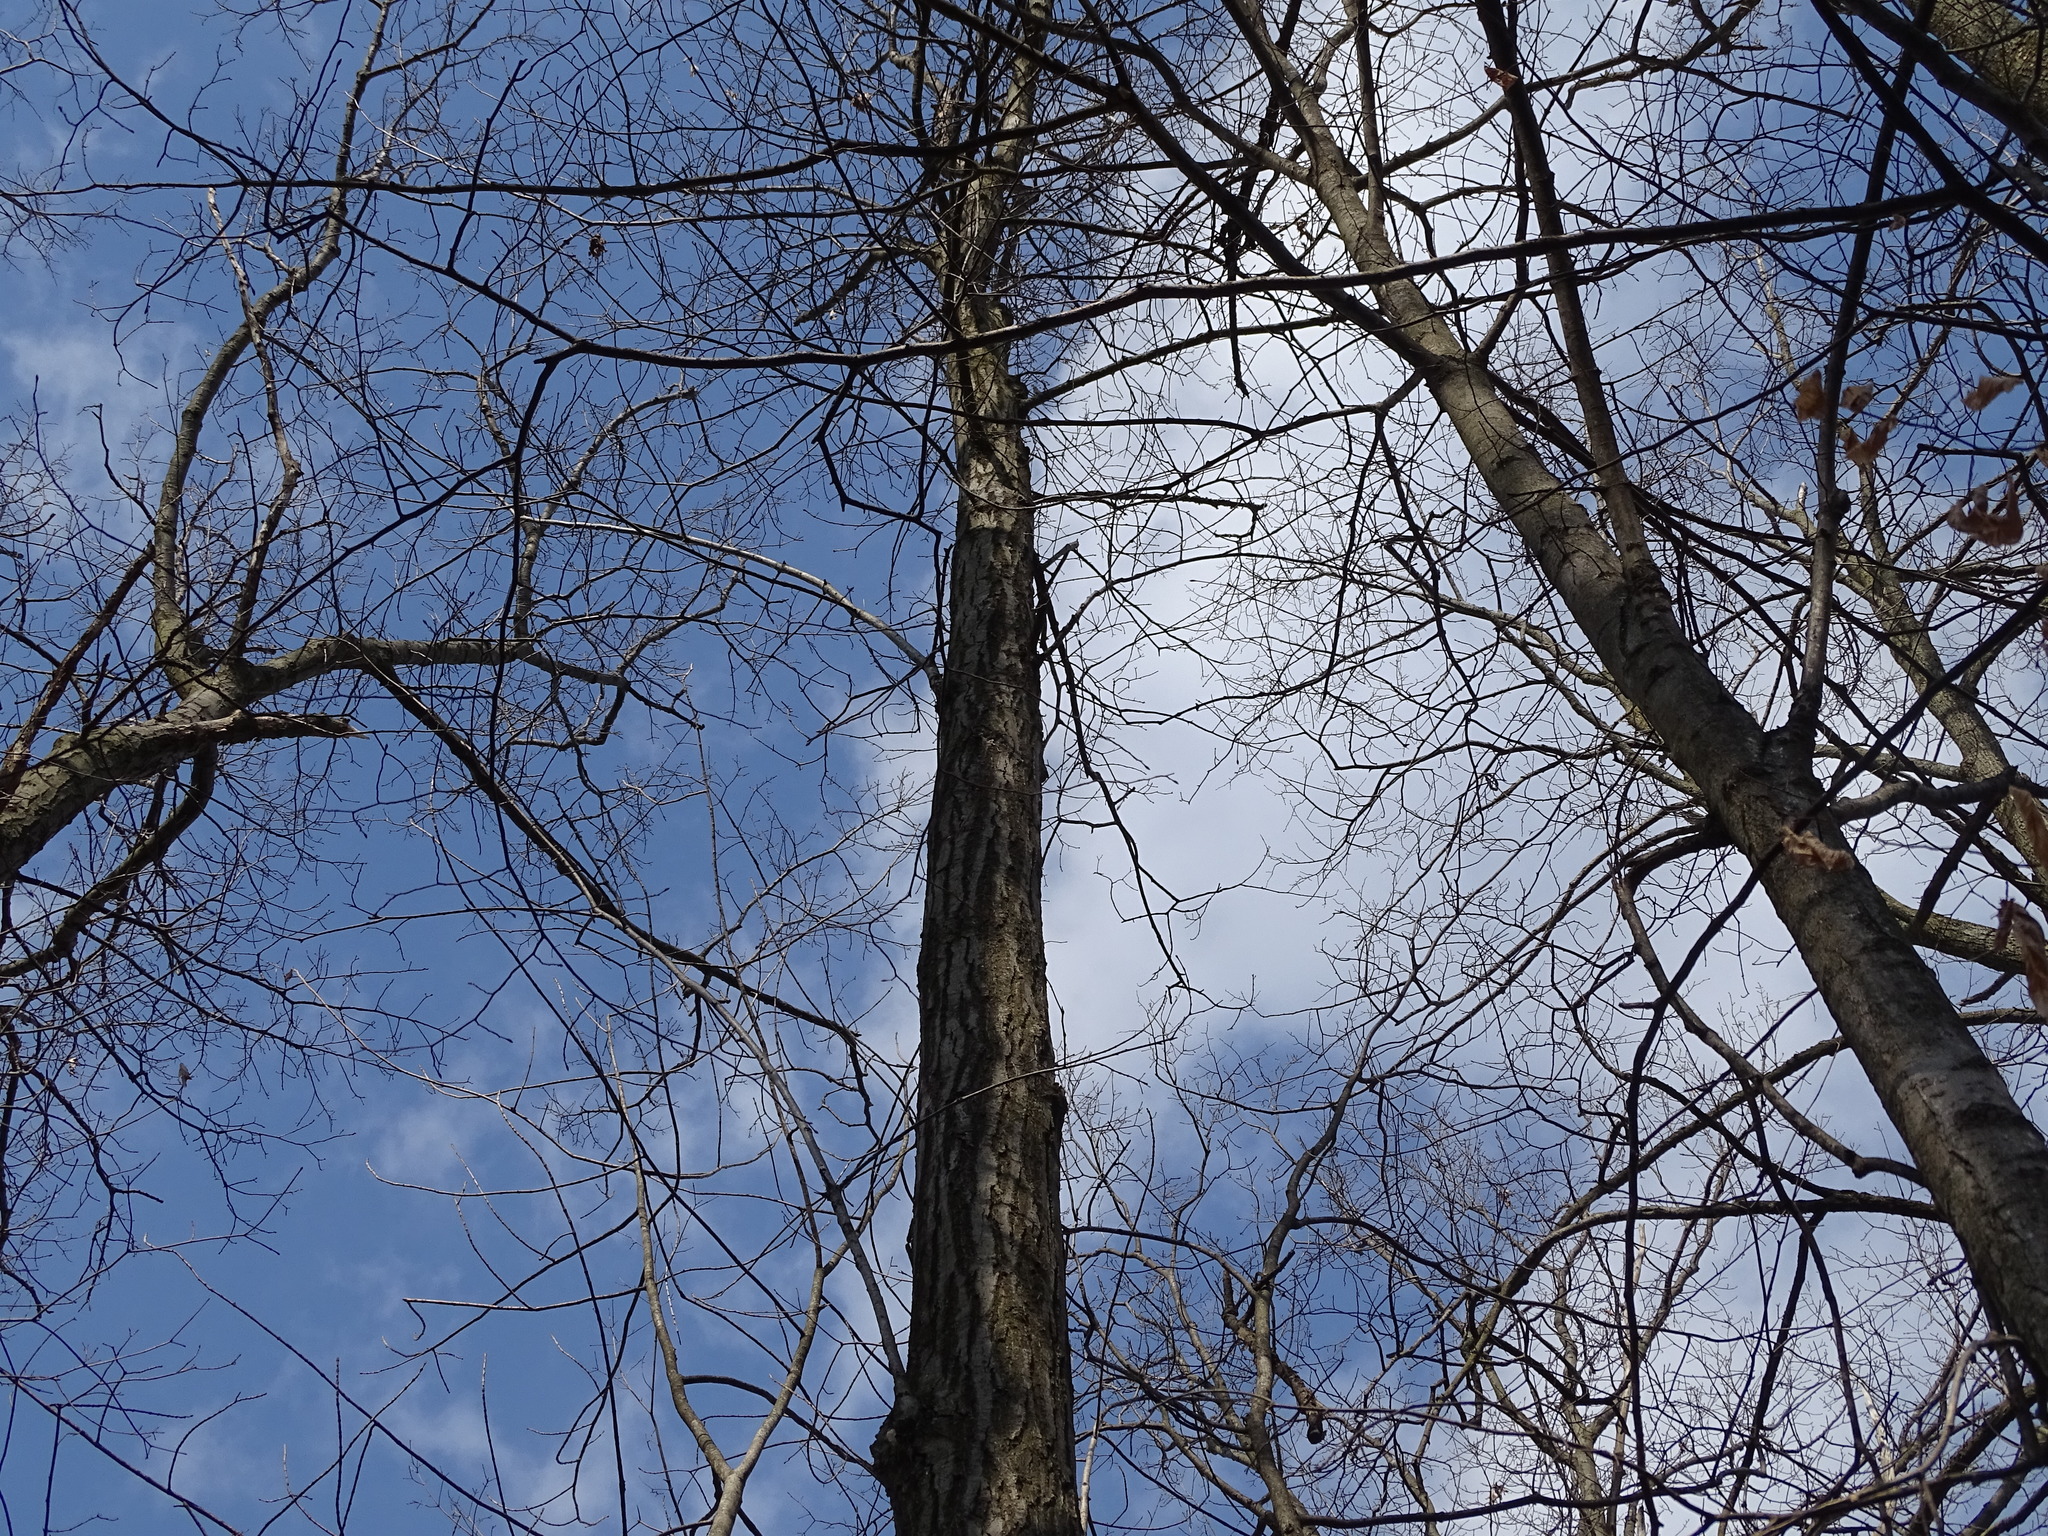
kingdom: Plantae
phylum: Tracheophyta
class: Magnoliopsida
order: Fagales
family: Fagaceae
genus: Quercus
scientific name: Quercus rubra
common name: Red oak
